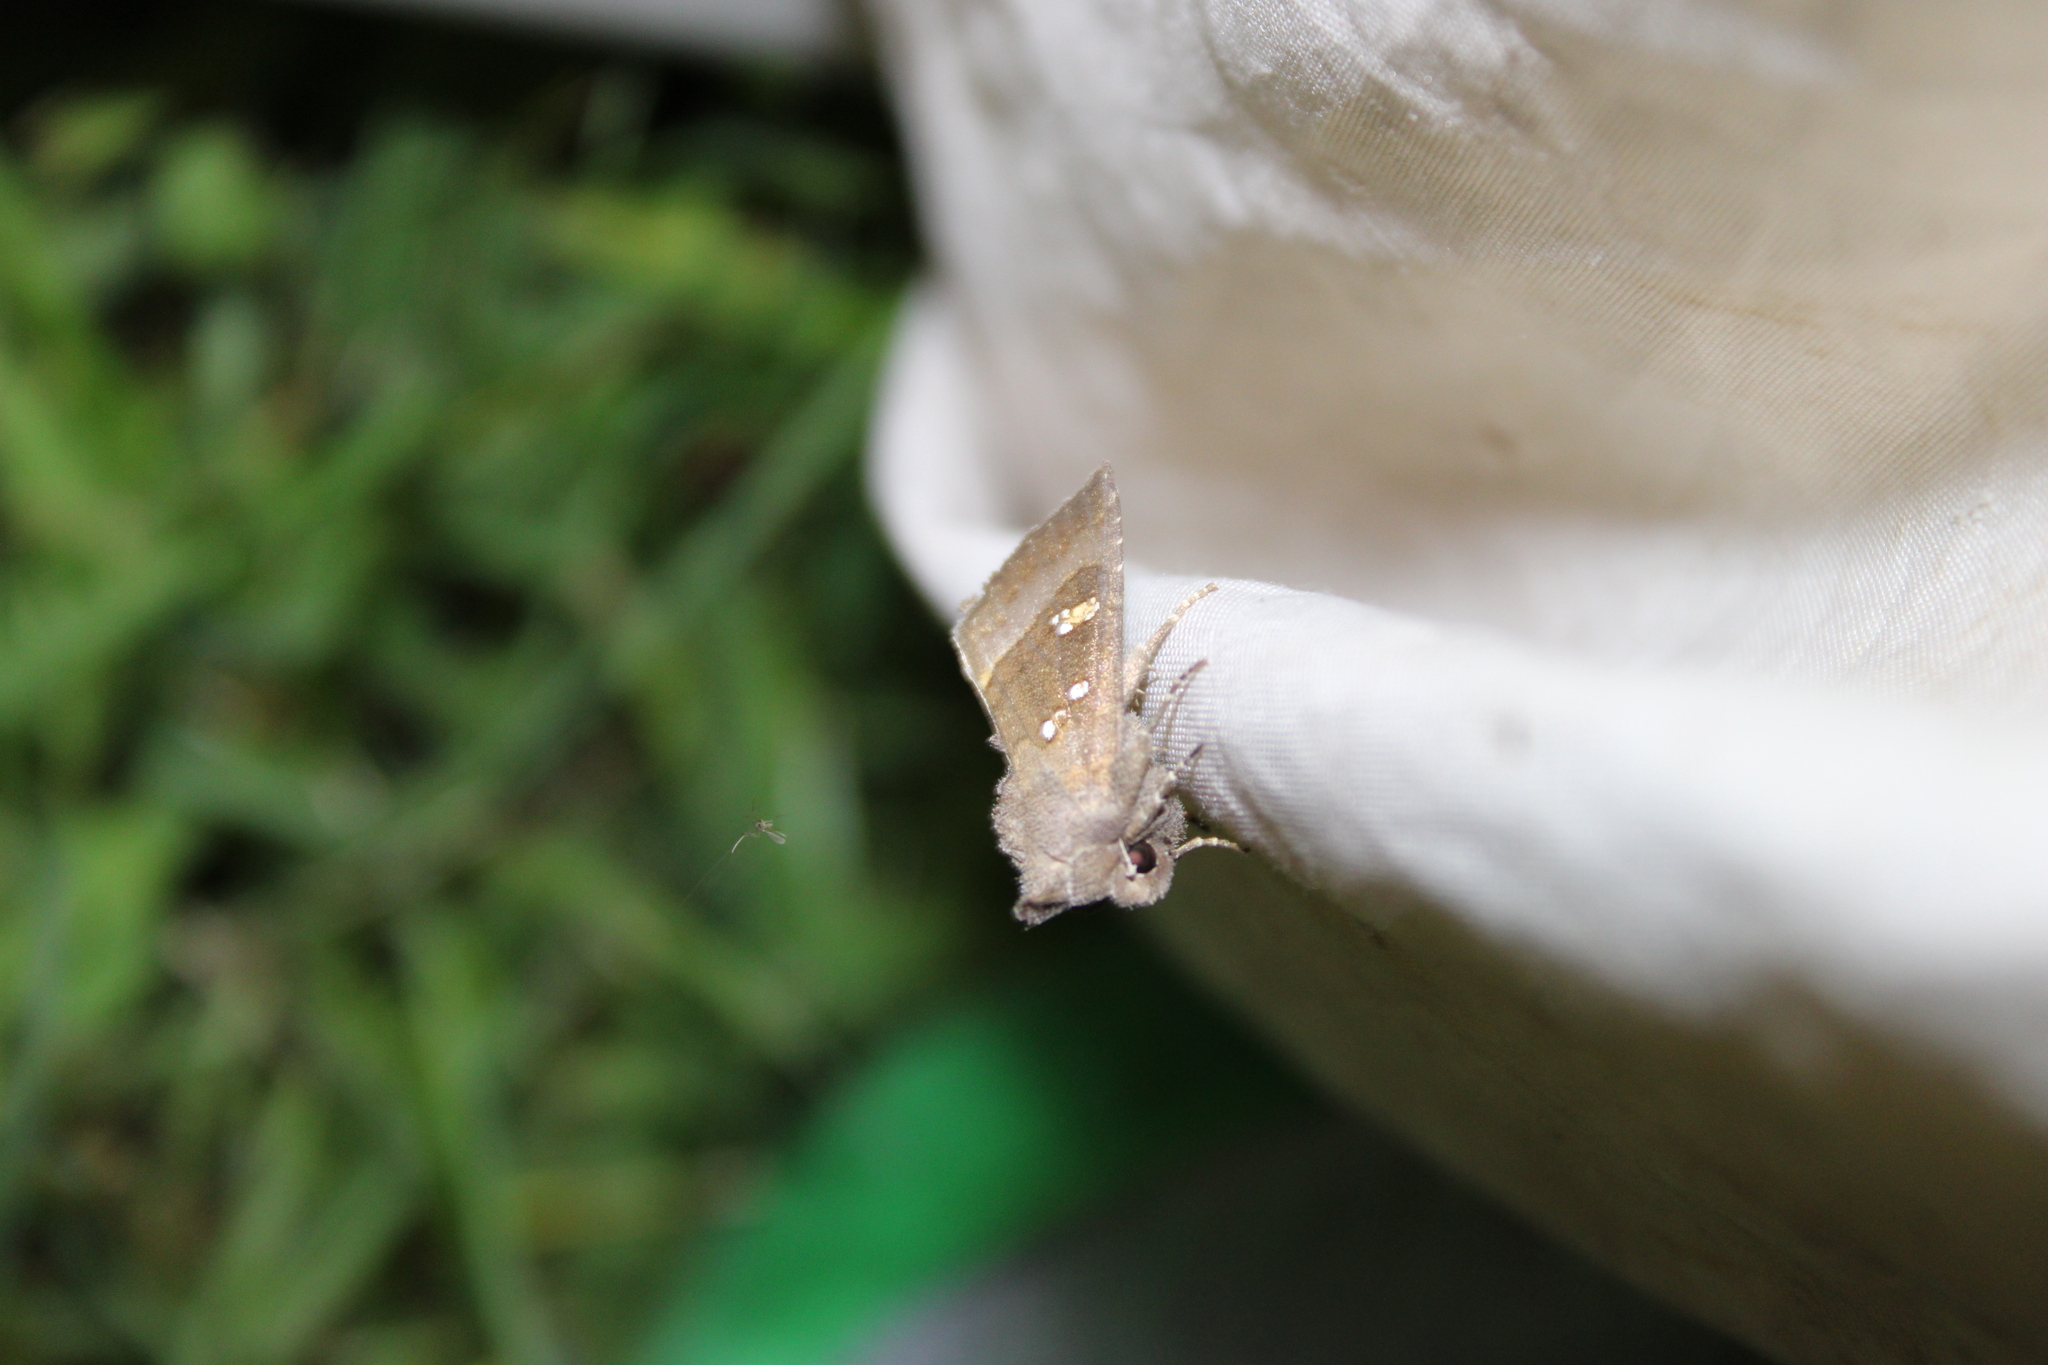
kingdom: Animalia
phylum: Arthropoda
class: Insecta
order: Lepidoptera
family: Noctuidae
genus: Papaipema
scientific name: Papaipema nebris
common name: Stalk borer
